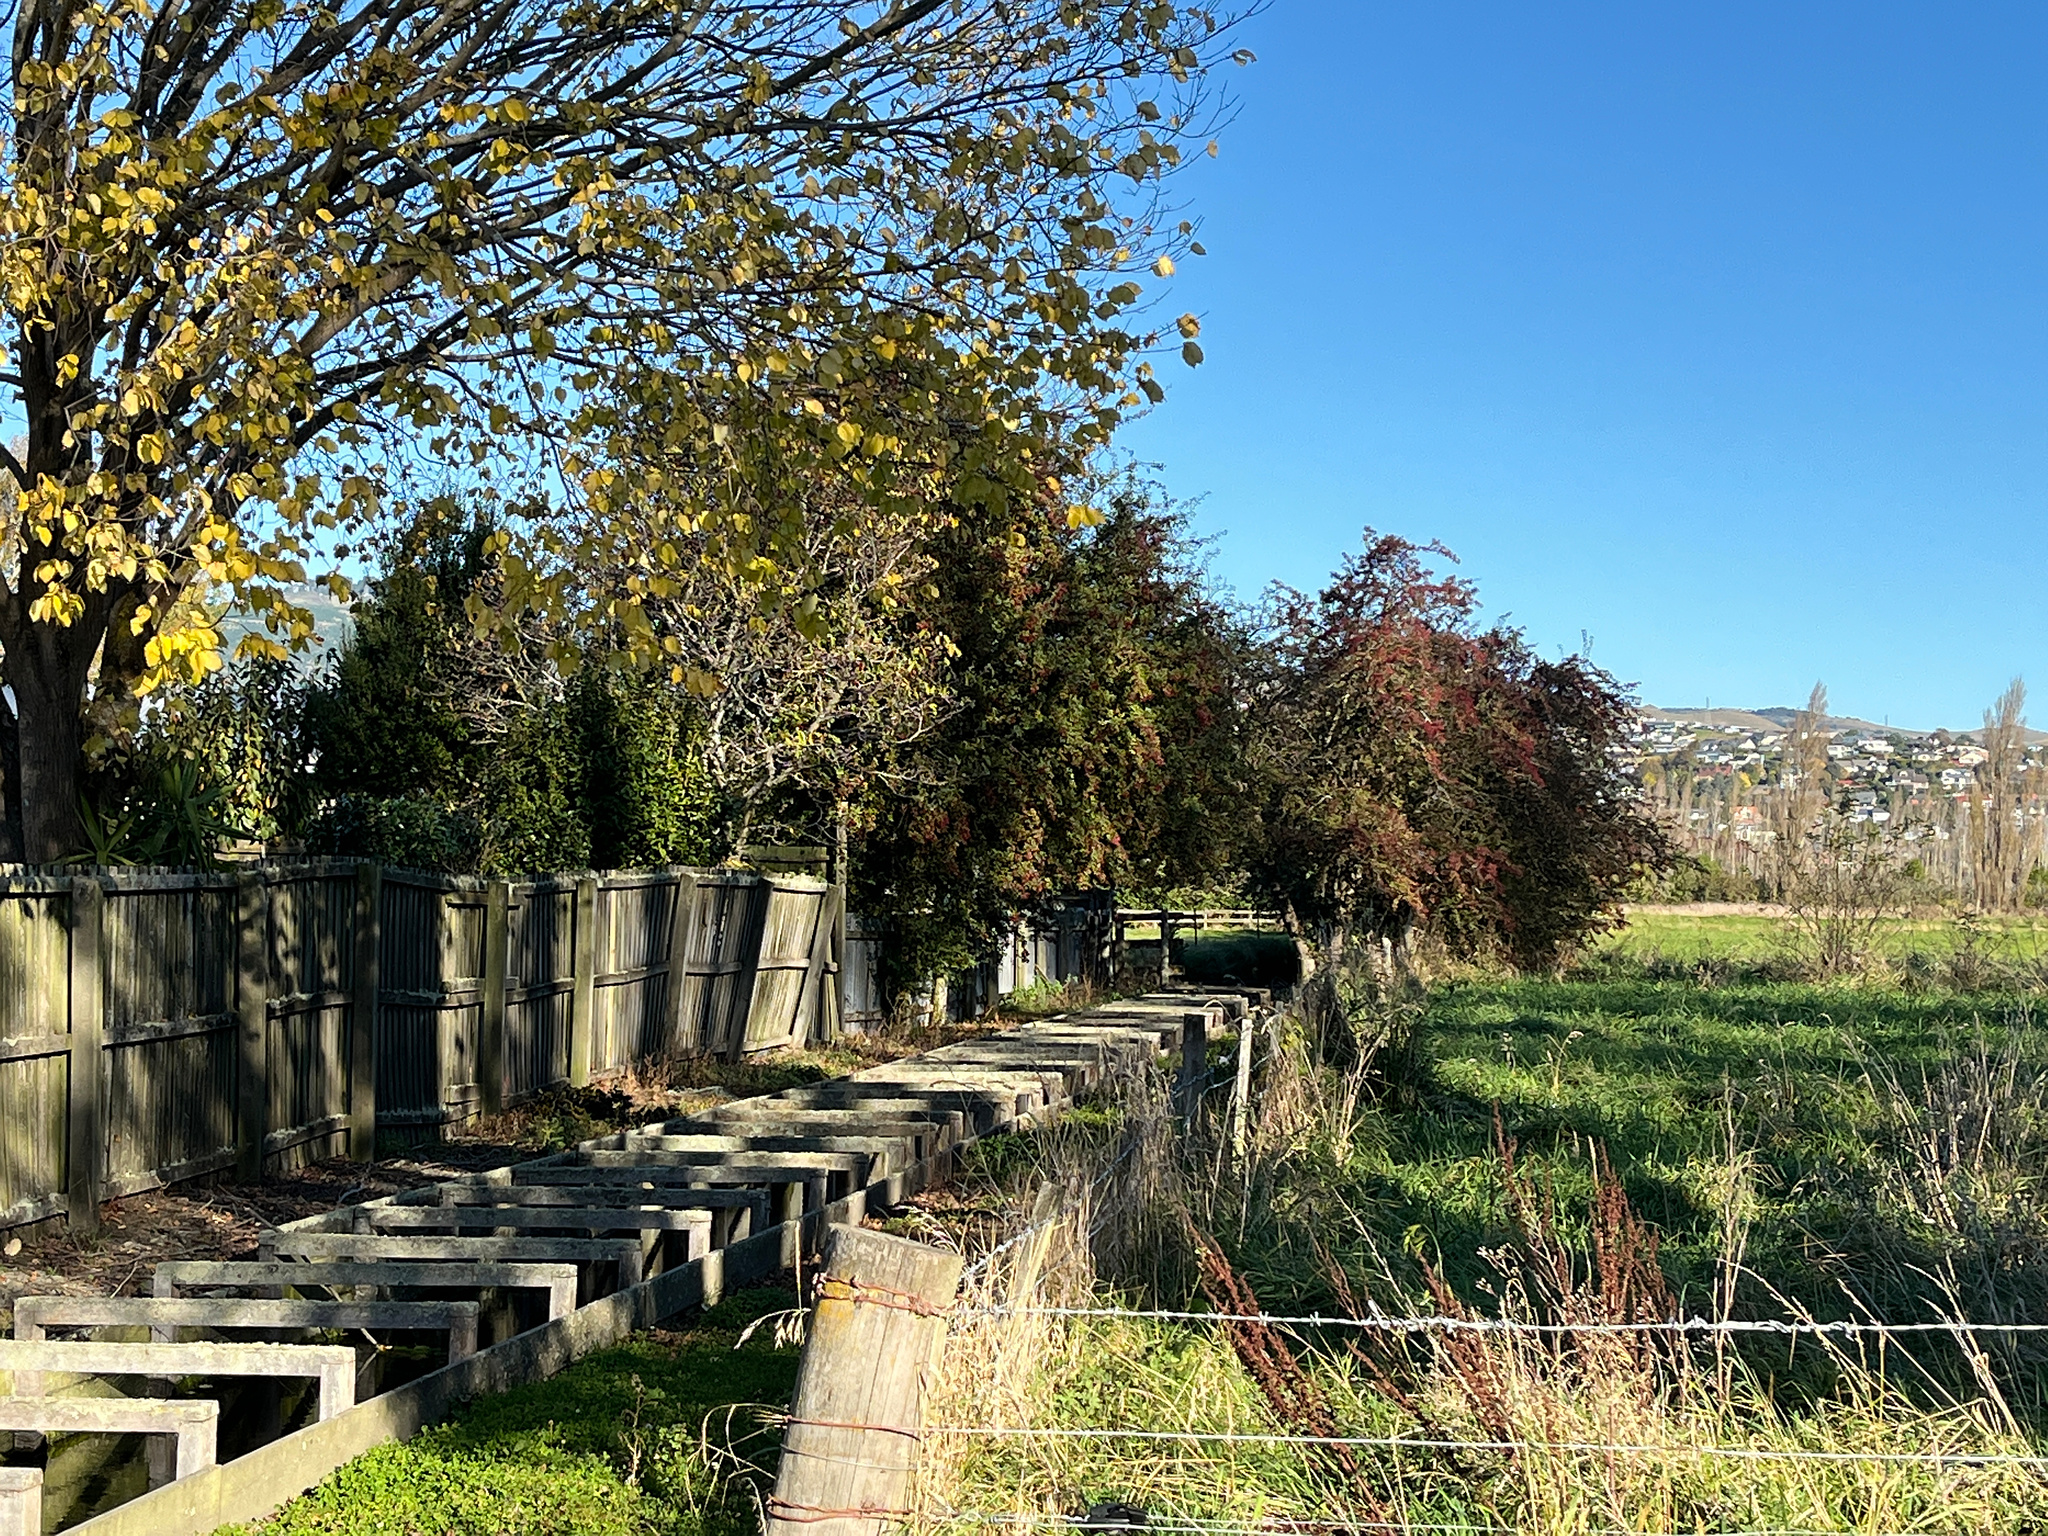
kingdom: Plantae
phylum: Tracheophyta
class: Magnoliopsida
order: Rosales
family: Rosaceae
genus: Crataegus
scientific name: Crataegus monogyna
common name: Hawthorn
